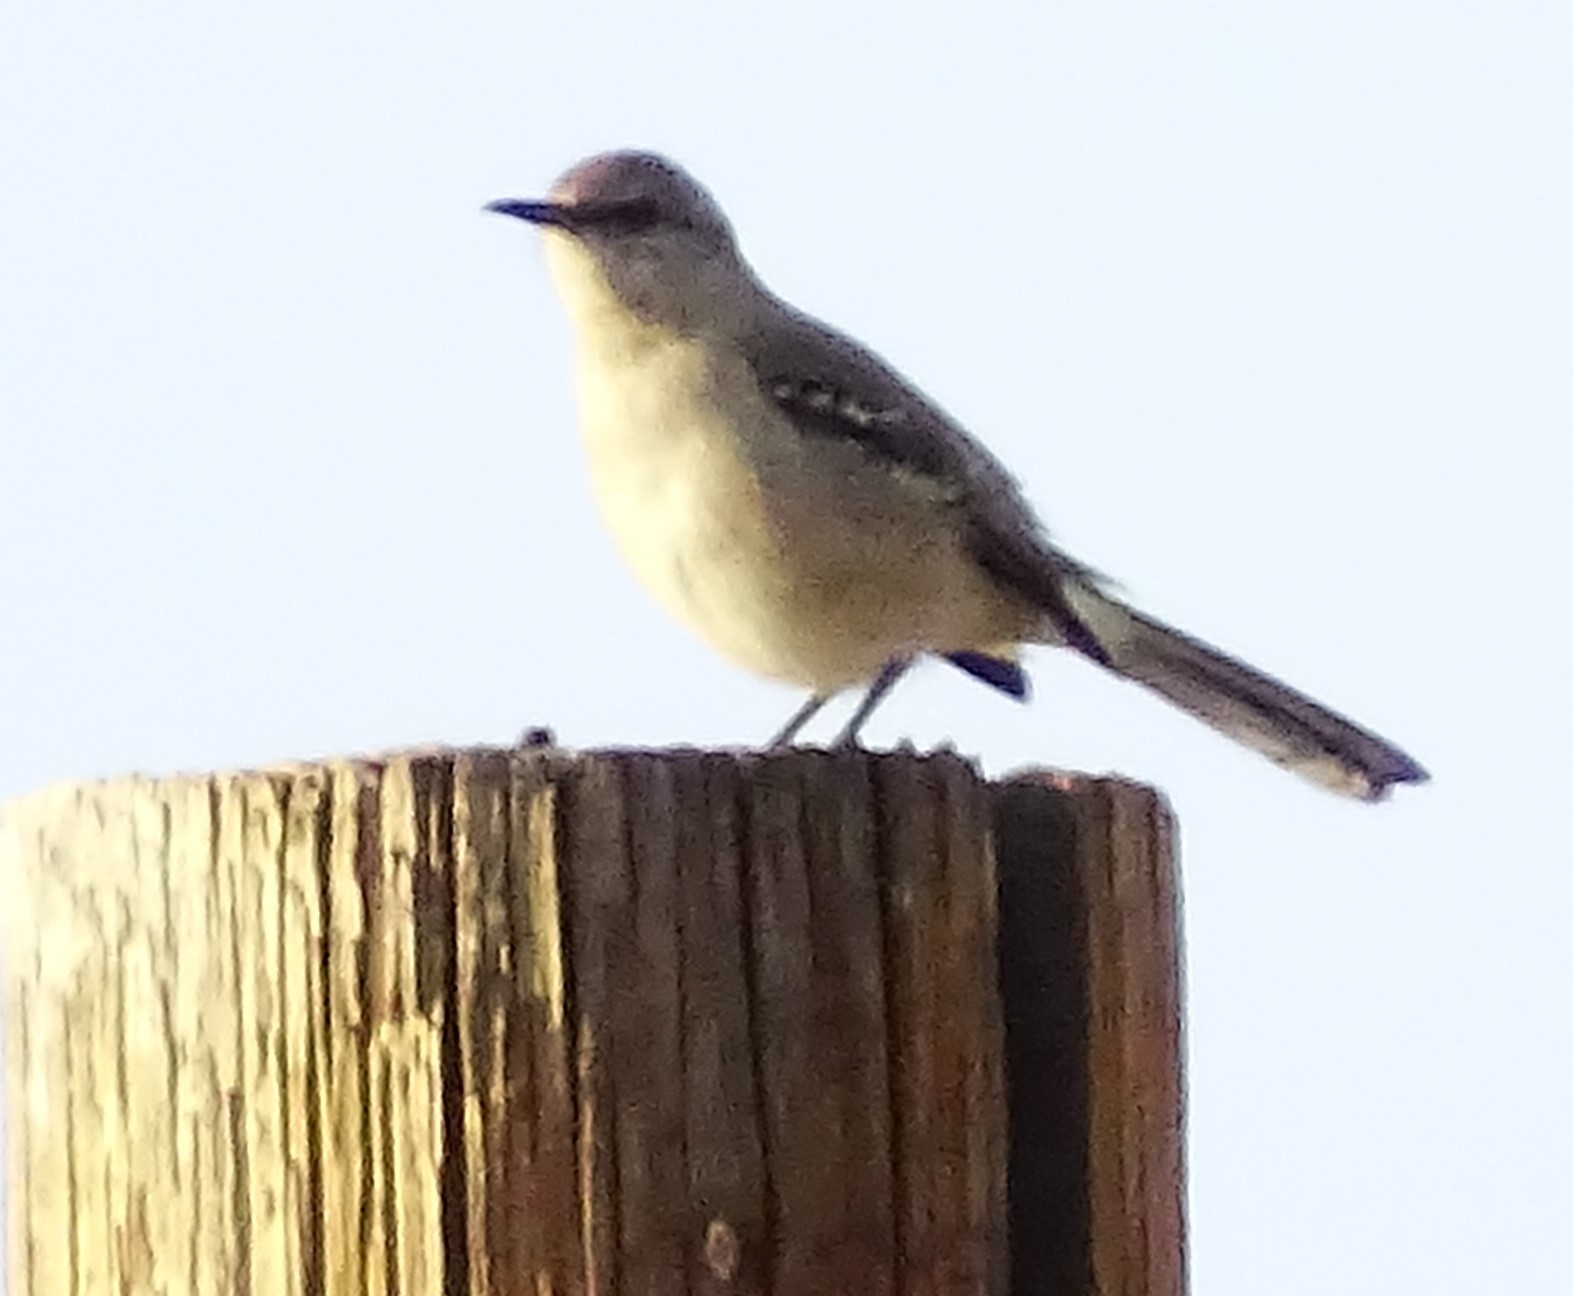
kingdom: Animalia
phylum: Chordata
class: Aves
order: Passeriformes
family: Mimidae
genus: Mimus
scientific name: Mimus polyglottos
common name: Northern mockingbird
